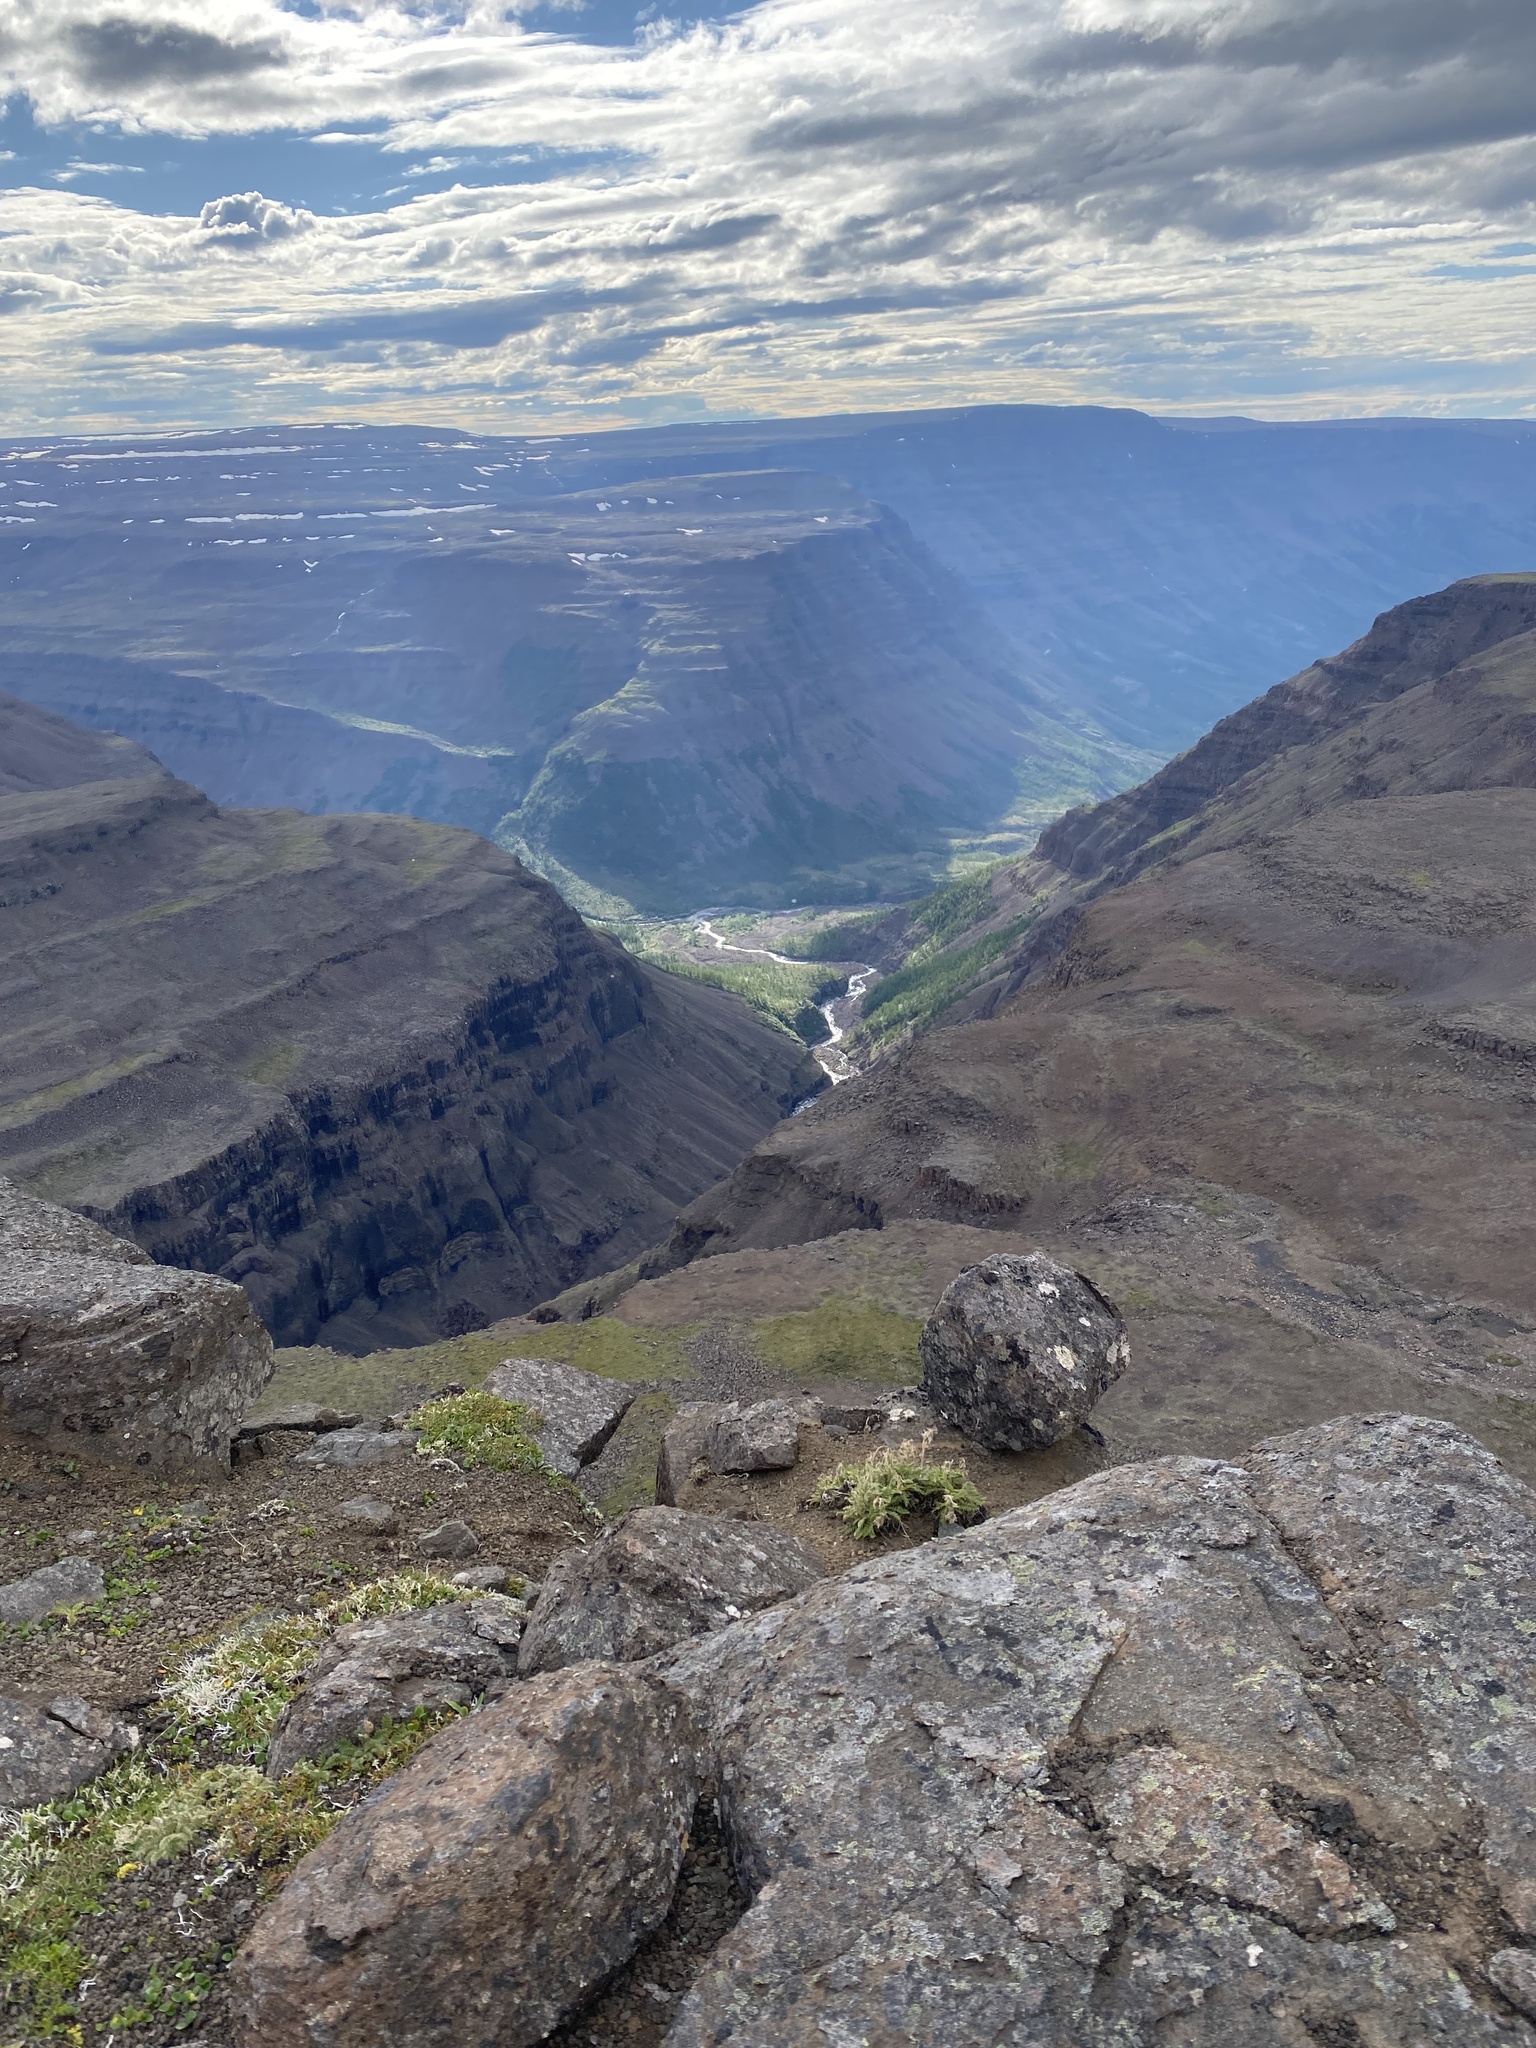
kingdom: Plantae
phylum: Tracheophyta
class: Magnoliopsida
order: Rosales
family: Rosaceae
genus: Geum
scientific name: Geum glaciale
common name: Glacier avens
